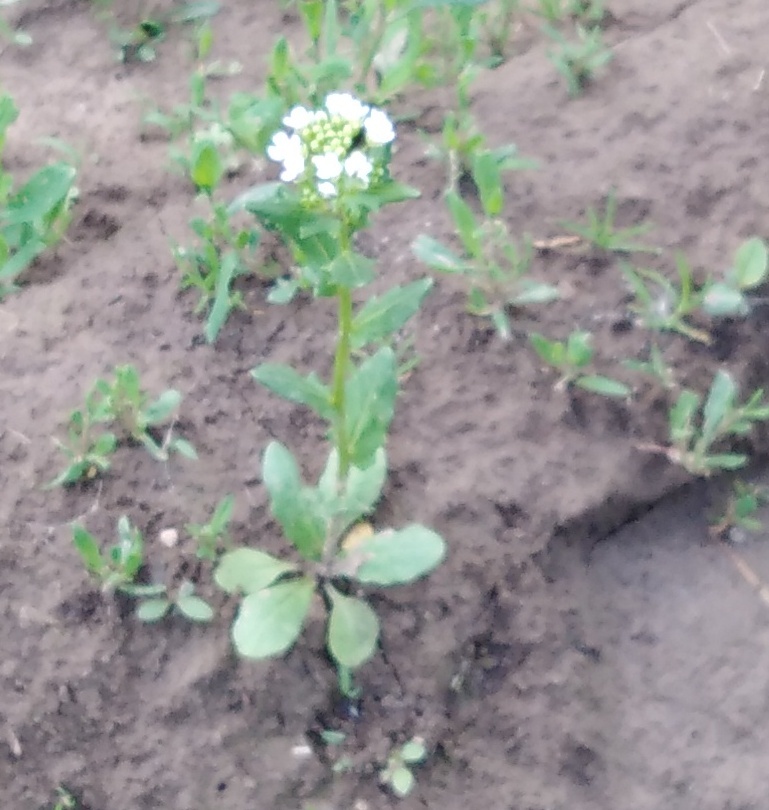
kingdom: Plantae
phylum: Tracheophyta
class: Magnoliopsida
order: Brassicales
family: Brassicaceae
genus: Thlaspi
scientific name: Thlaspi arvense
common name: Field pennycress
